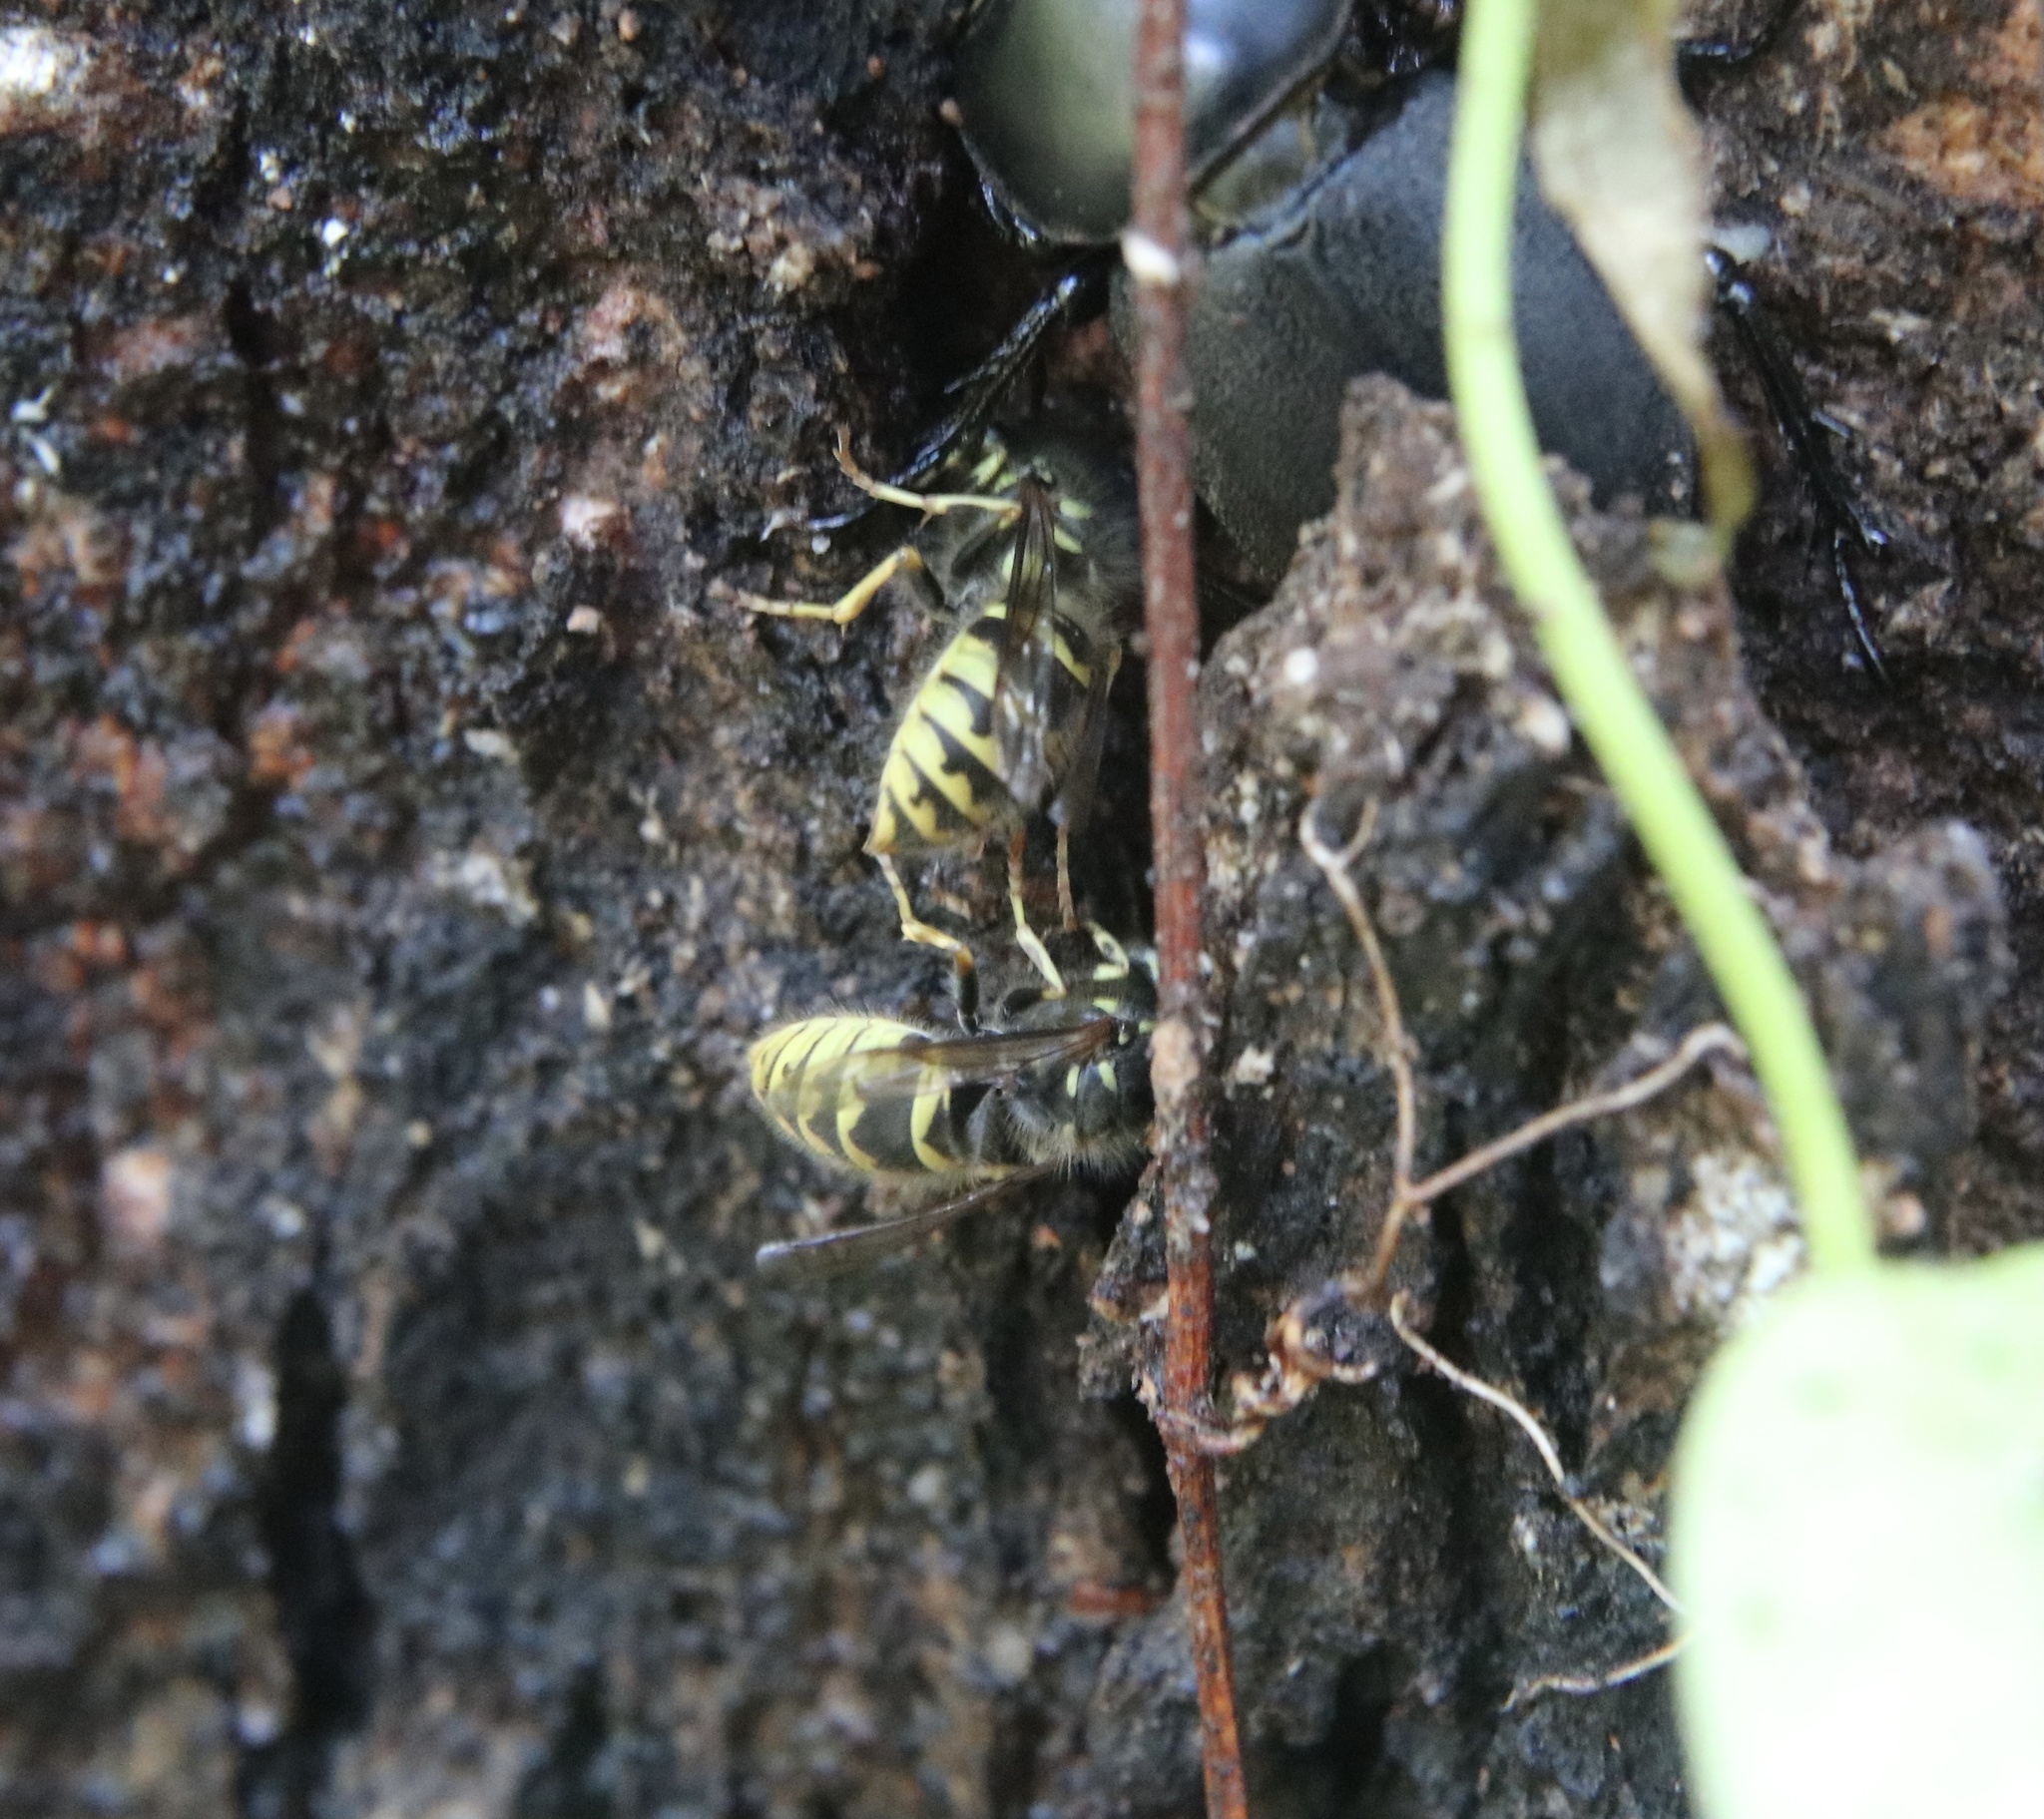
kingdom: Animalia
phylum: Arthropoda
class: Insecta
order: Hymenoptera
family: Vespidae
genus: Vespula
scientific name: Vespula vulgaris
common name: Common wasp
